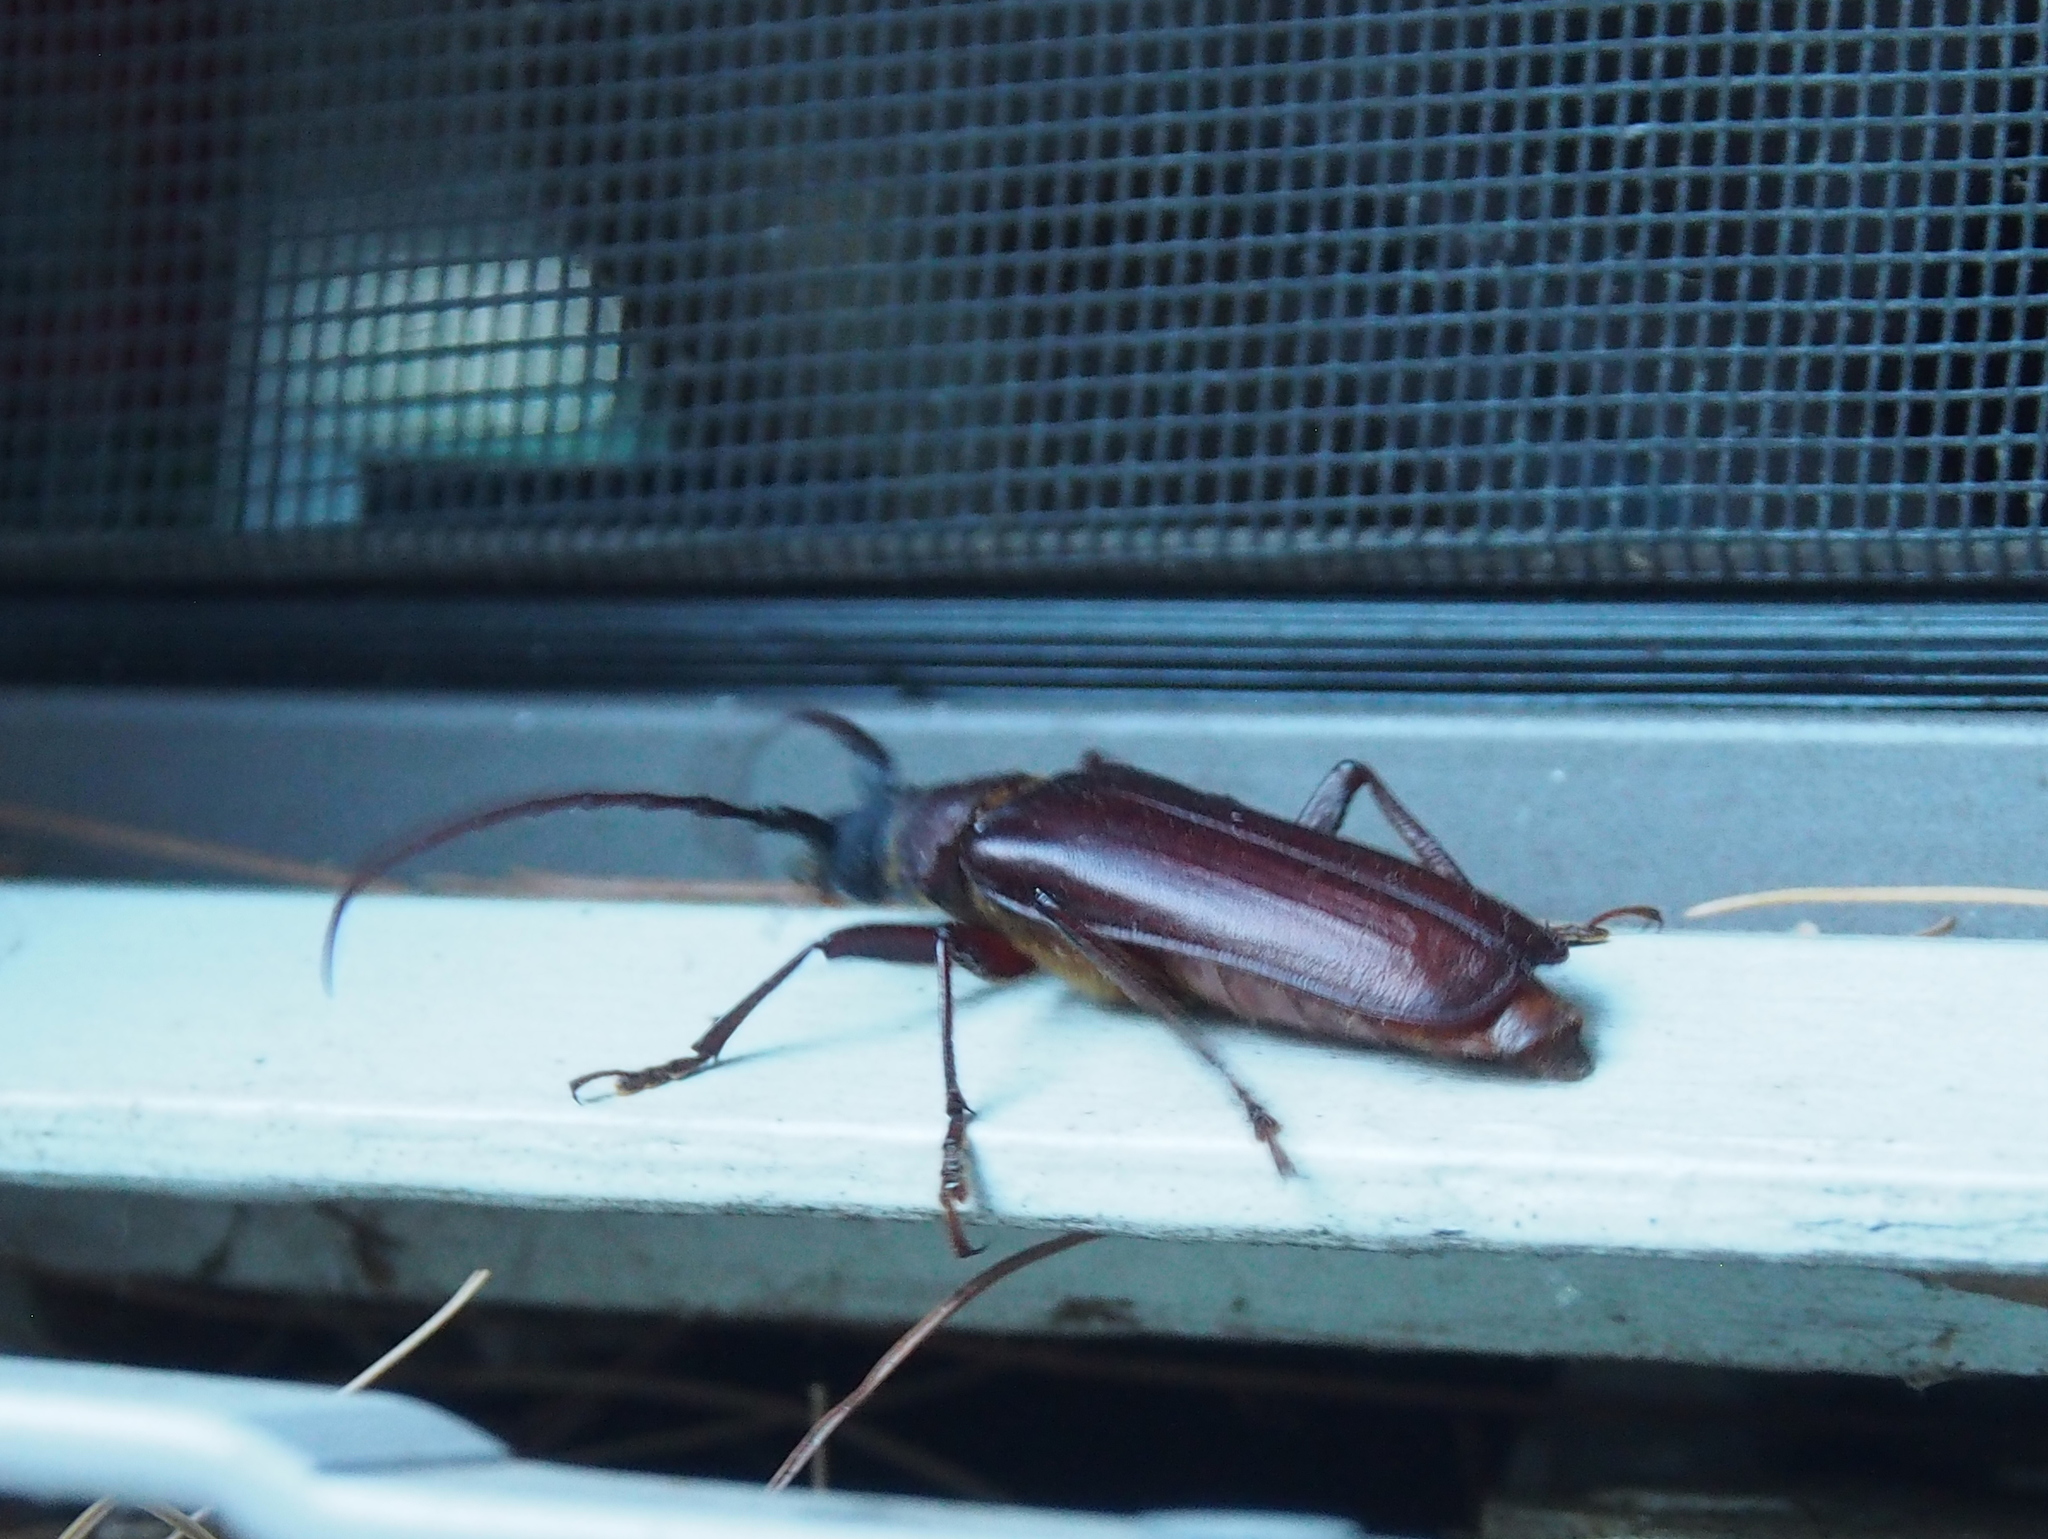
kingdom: Animalia
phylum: Arthropoda
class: Insecta
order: Coleoptera
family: Cerambycidae
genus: Orthosoma
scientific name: Orthosoma brunneum
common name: Brown prionid beetle
